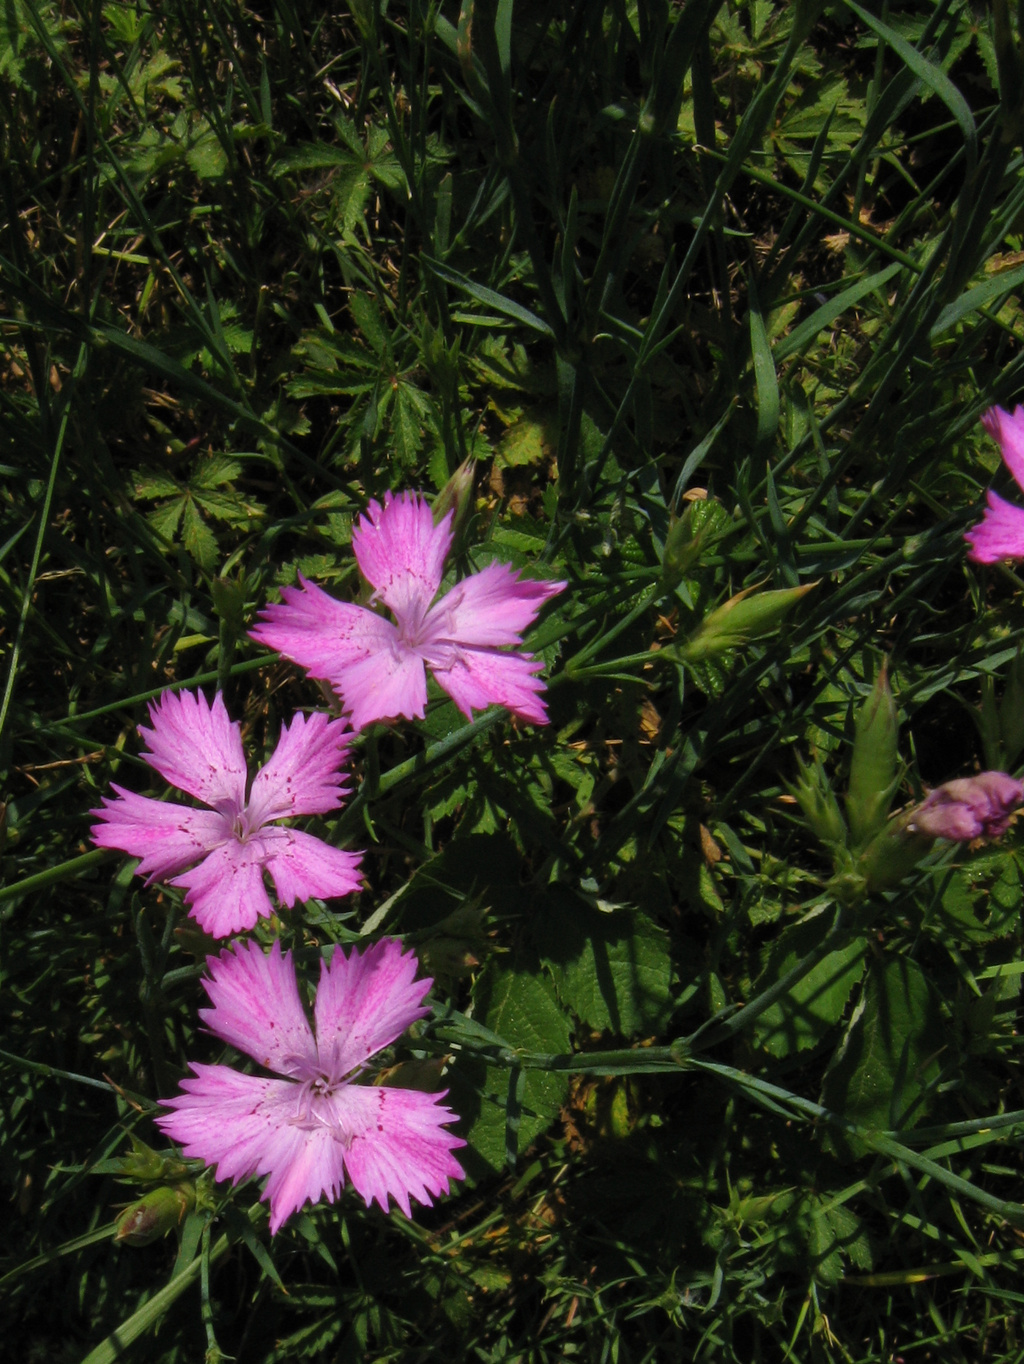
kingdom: Plantae
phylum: Tracheophyta
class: Magnoliopsida
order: Caryophyllales
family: Caryophyllaceae
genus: Dianthus
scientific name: Dianthus seguieri
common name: Ragged pink
